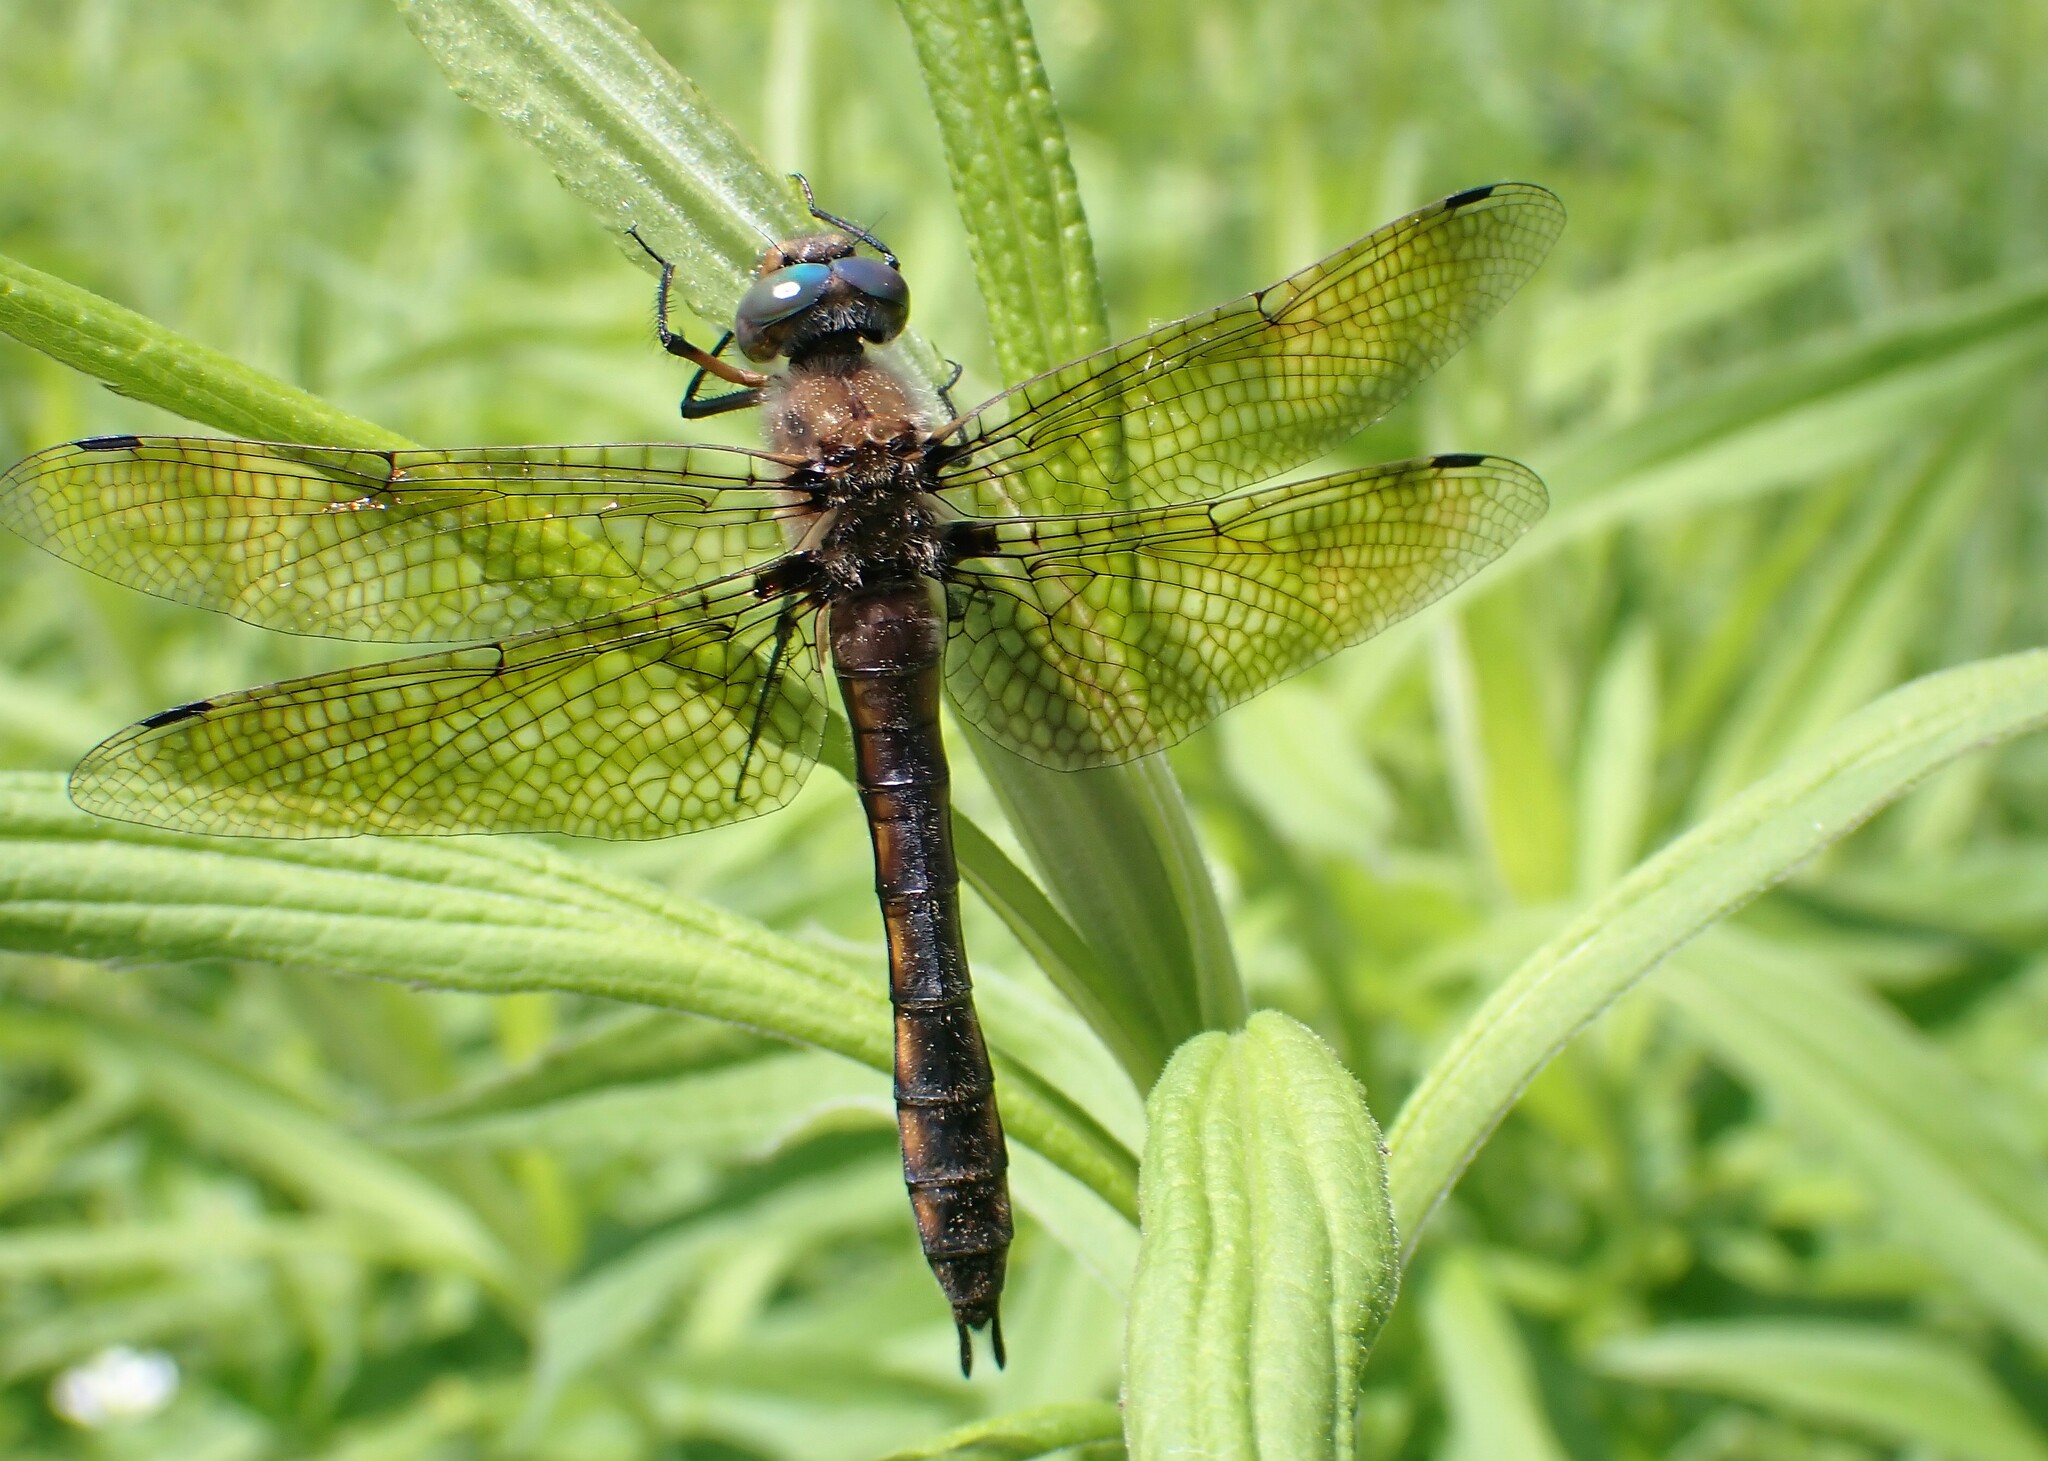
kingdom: Animalia
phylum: Arthropoda
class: Insecta
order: Odonata
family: Corduliidae
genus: Epitheca
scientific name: Epitheca canis
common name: Beaverpond baskettail
